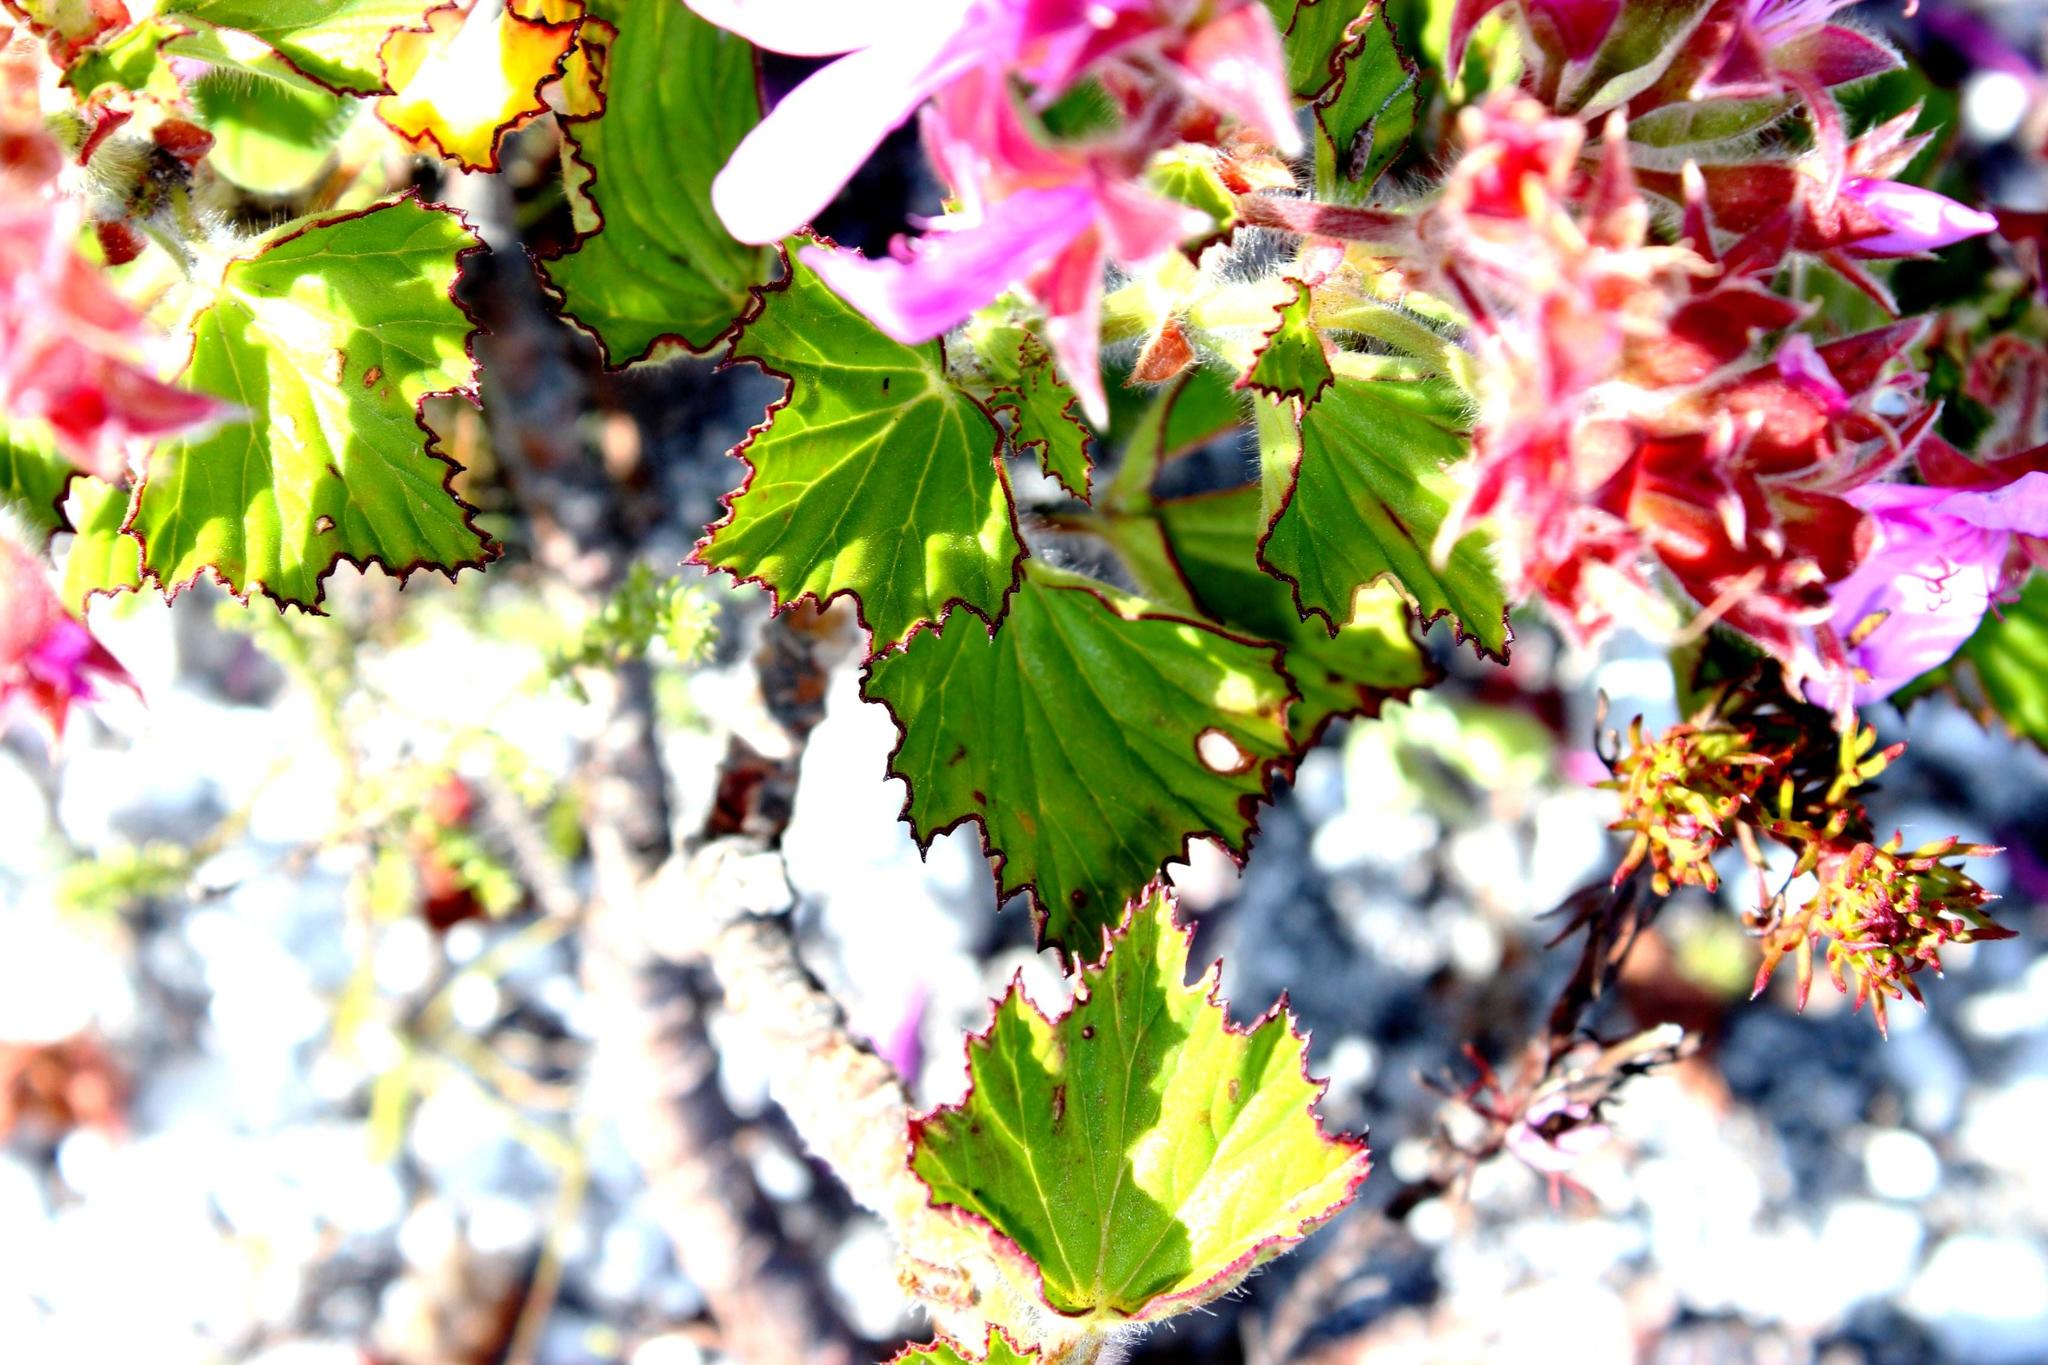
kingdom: Plantae
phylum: Tracheophyta
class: Magnoliopsida
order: Geraniales
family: Geraniaceae
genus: Pelargonium
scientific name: Pelargonium cucullatum
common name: Tree pelargonium
